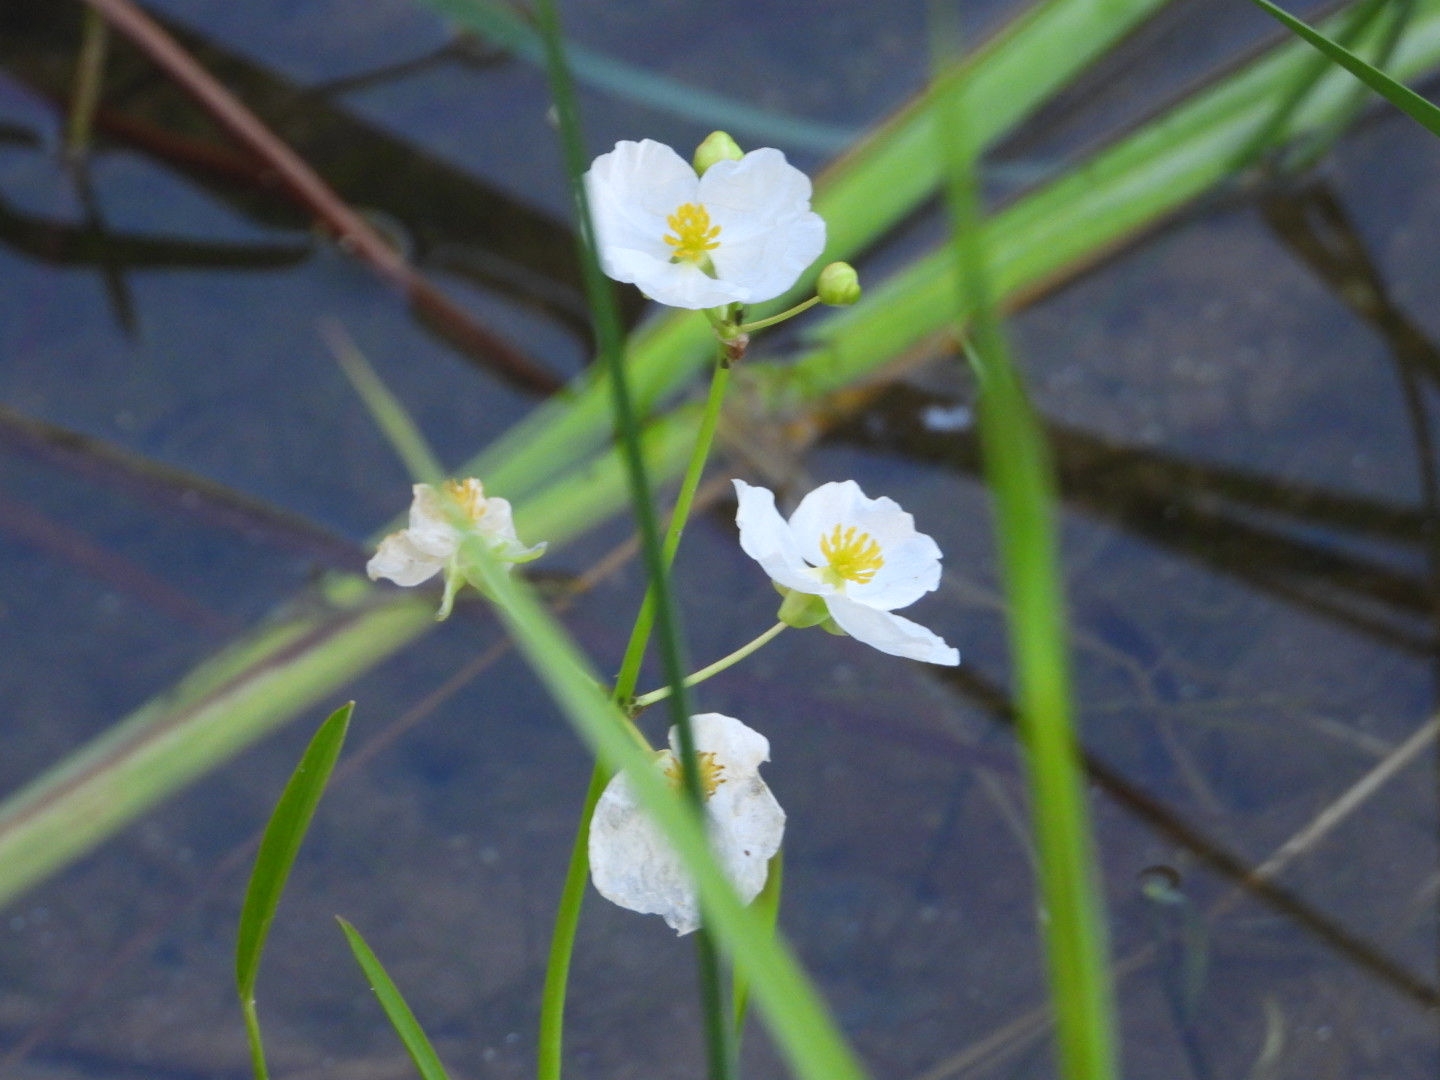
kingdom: Plantae
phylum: Tracheophyta
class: Liliopsida
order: Alismatales
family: Alismataceae
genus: Sagittaria
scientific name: Sagittaria latifolia
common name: Duck-potato
